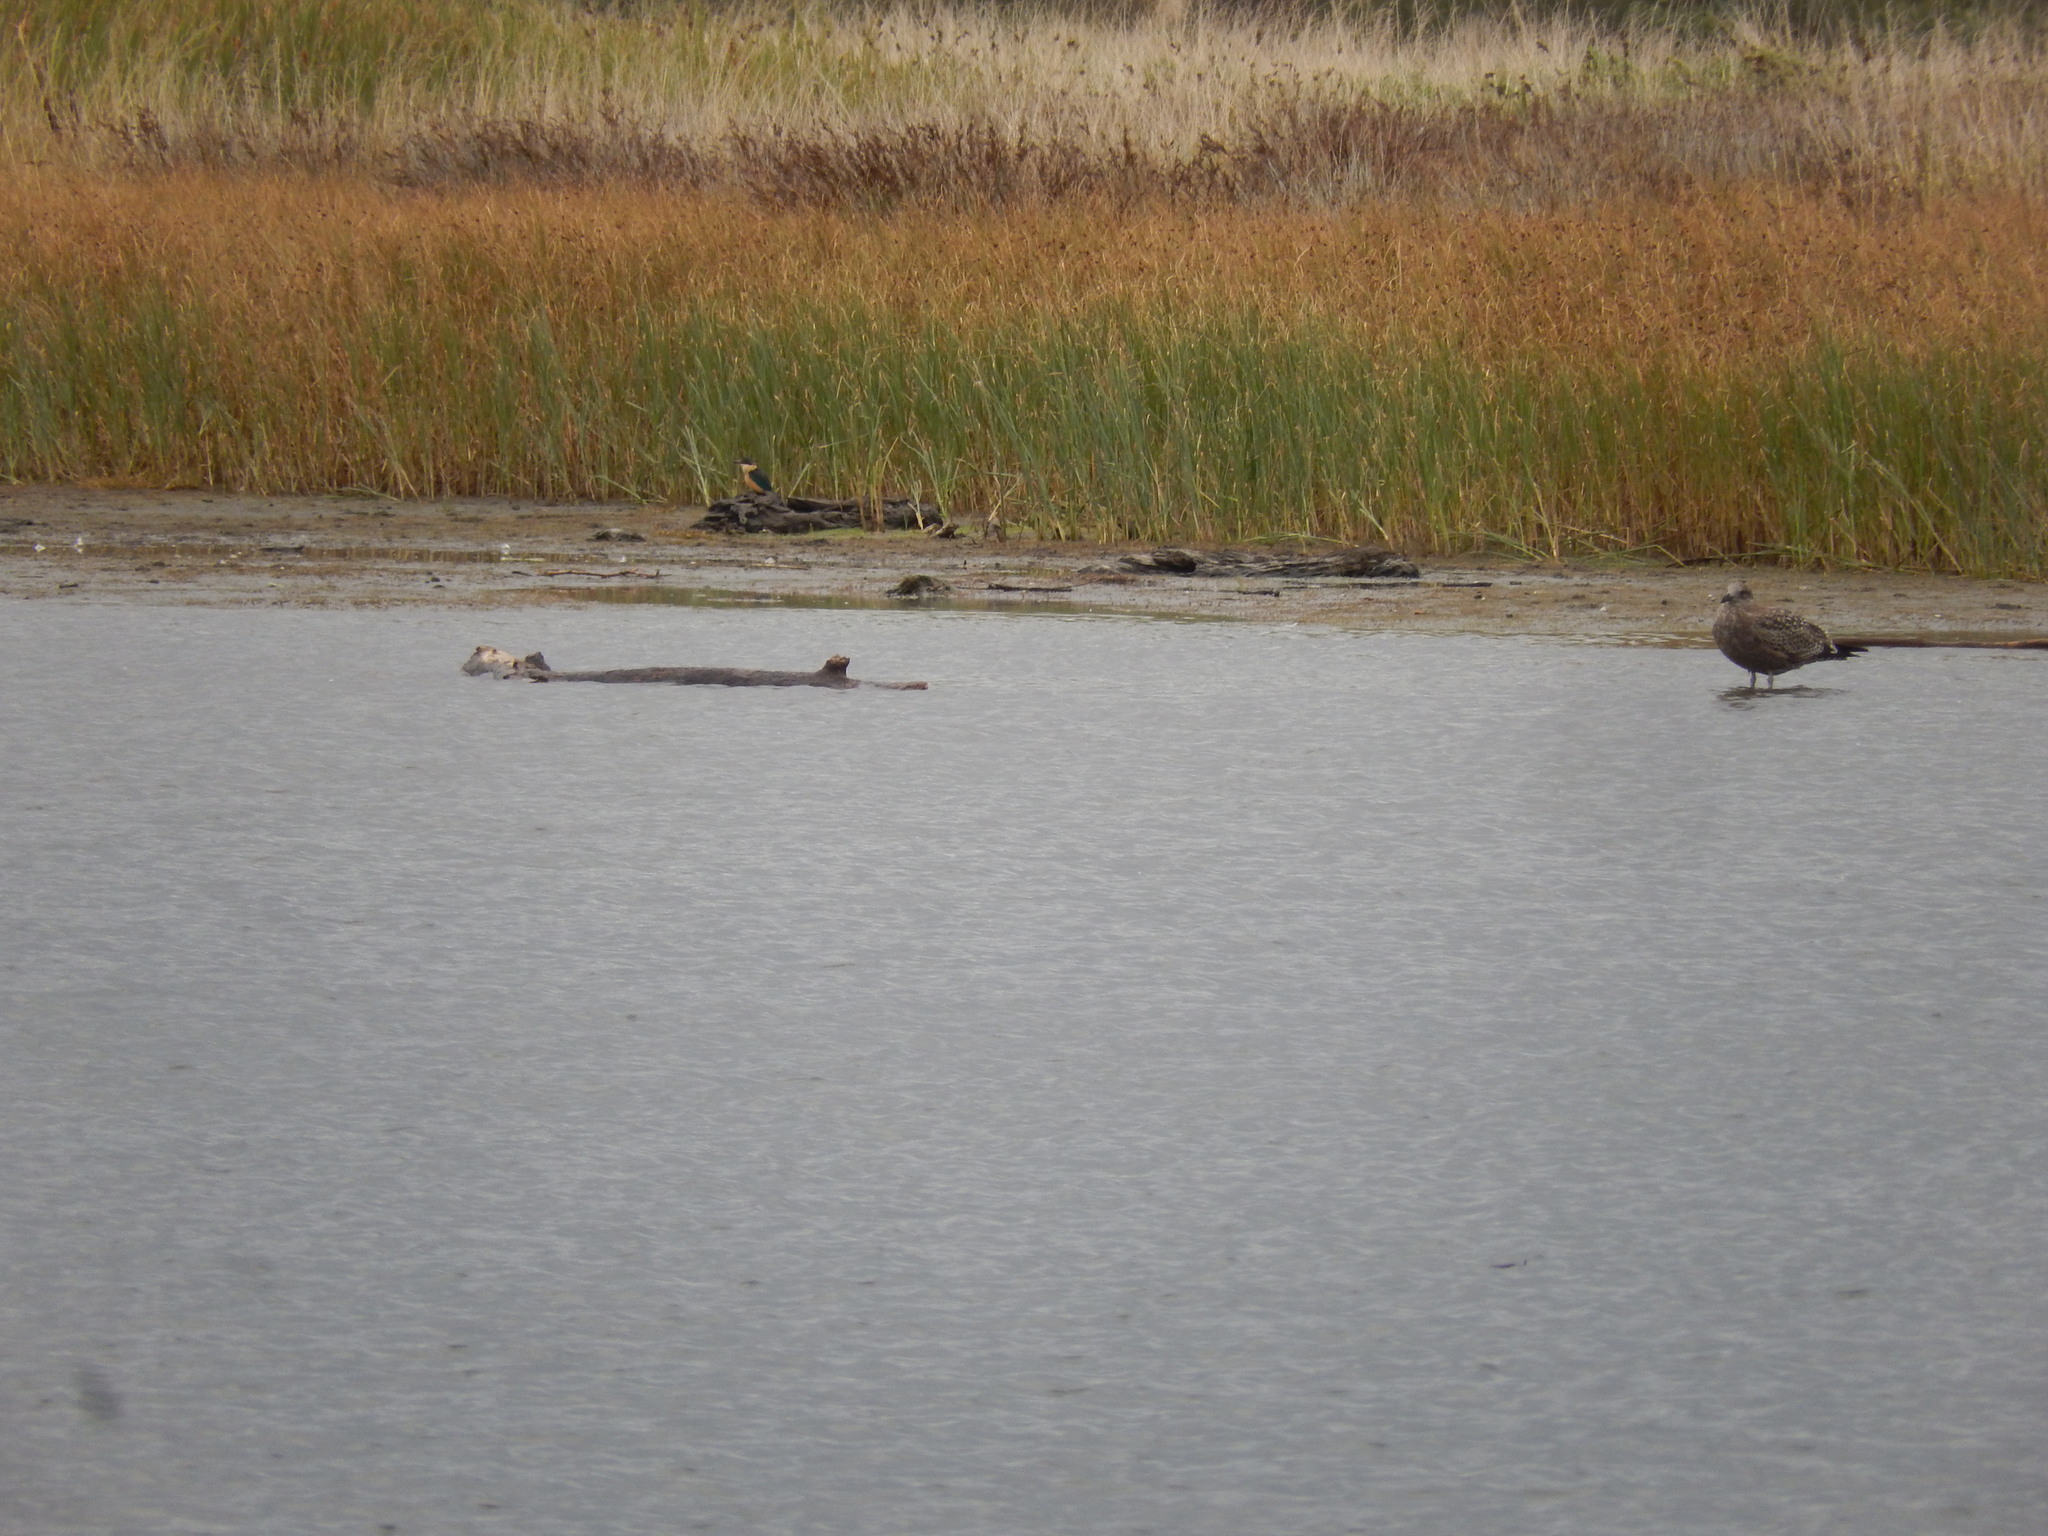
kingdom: Animalia
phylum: Chordata
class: Aves
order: Coraciiformes
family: Alcedinidae
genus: Todiramphus
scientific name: Todiramphus sanctus
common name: Sacred kingfisher
